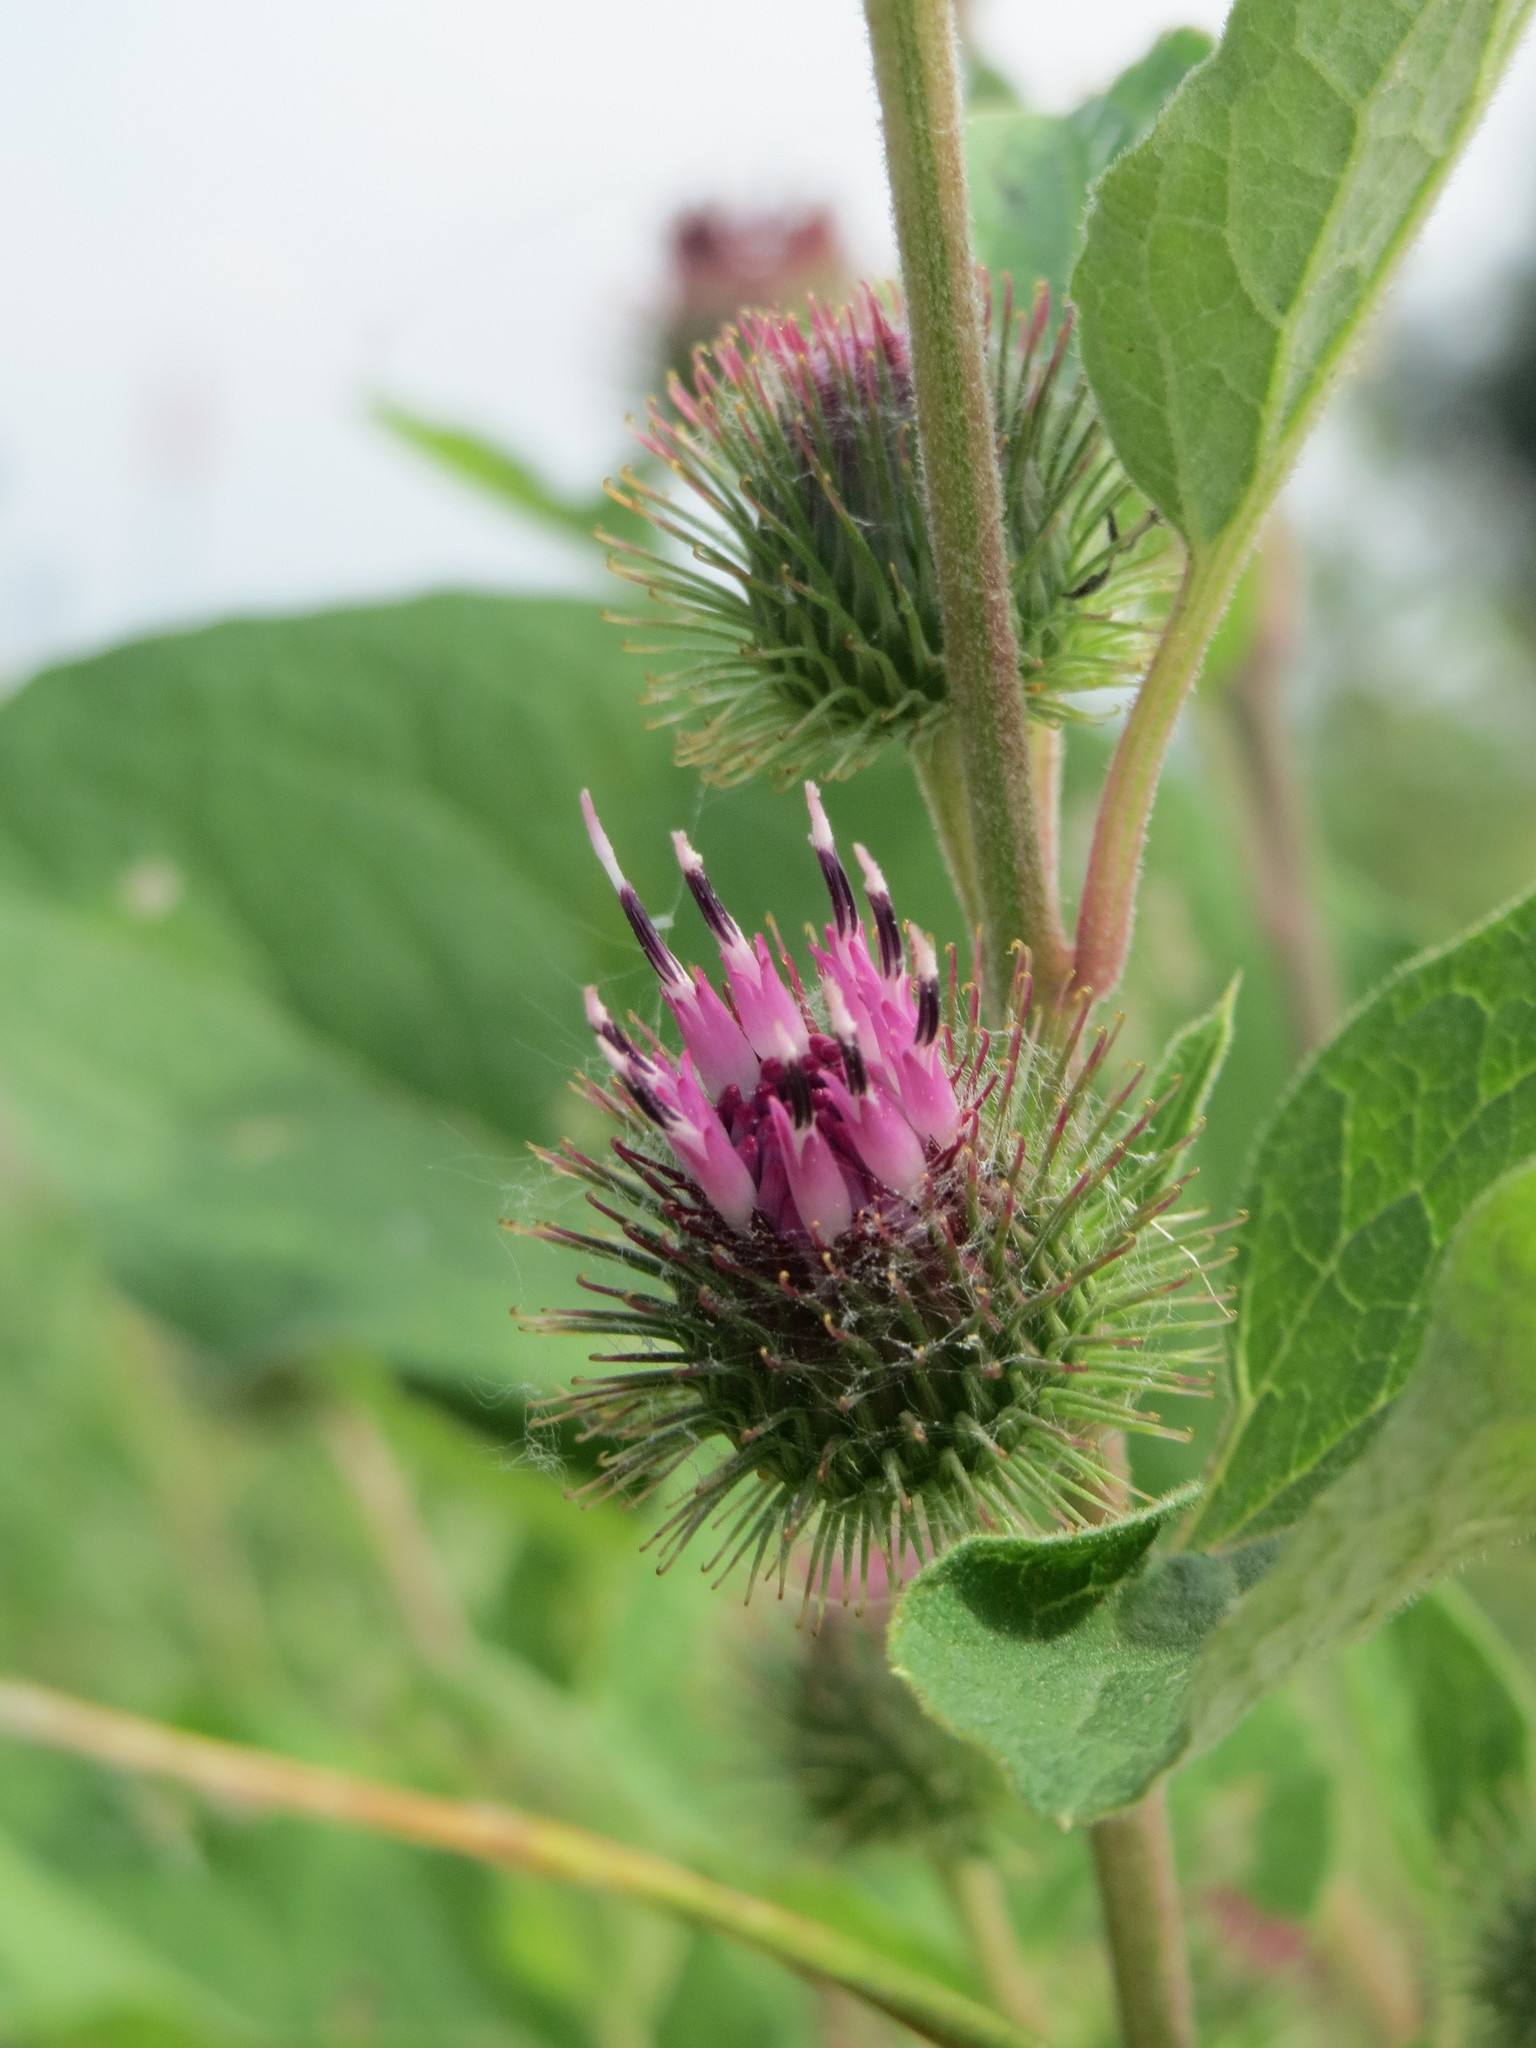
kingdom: Plantae
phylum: Tracheophyta
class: Magnoliopsida
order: Asterales
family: Asteraceae
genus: Arctium
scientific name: Arctium tomentosum
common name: Woolly burdock
